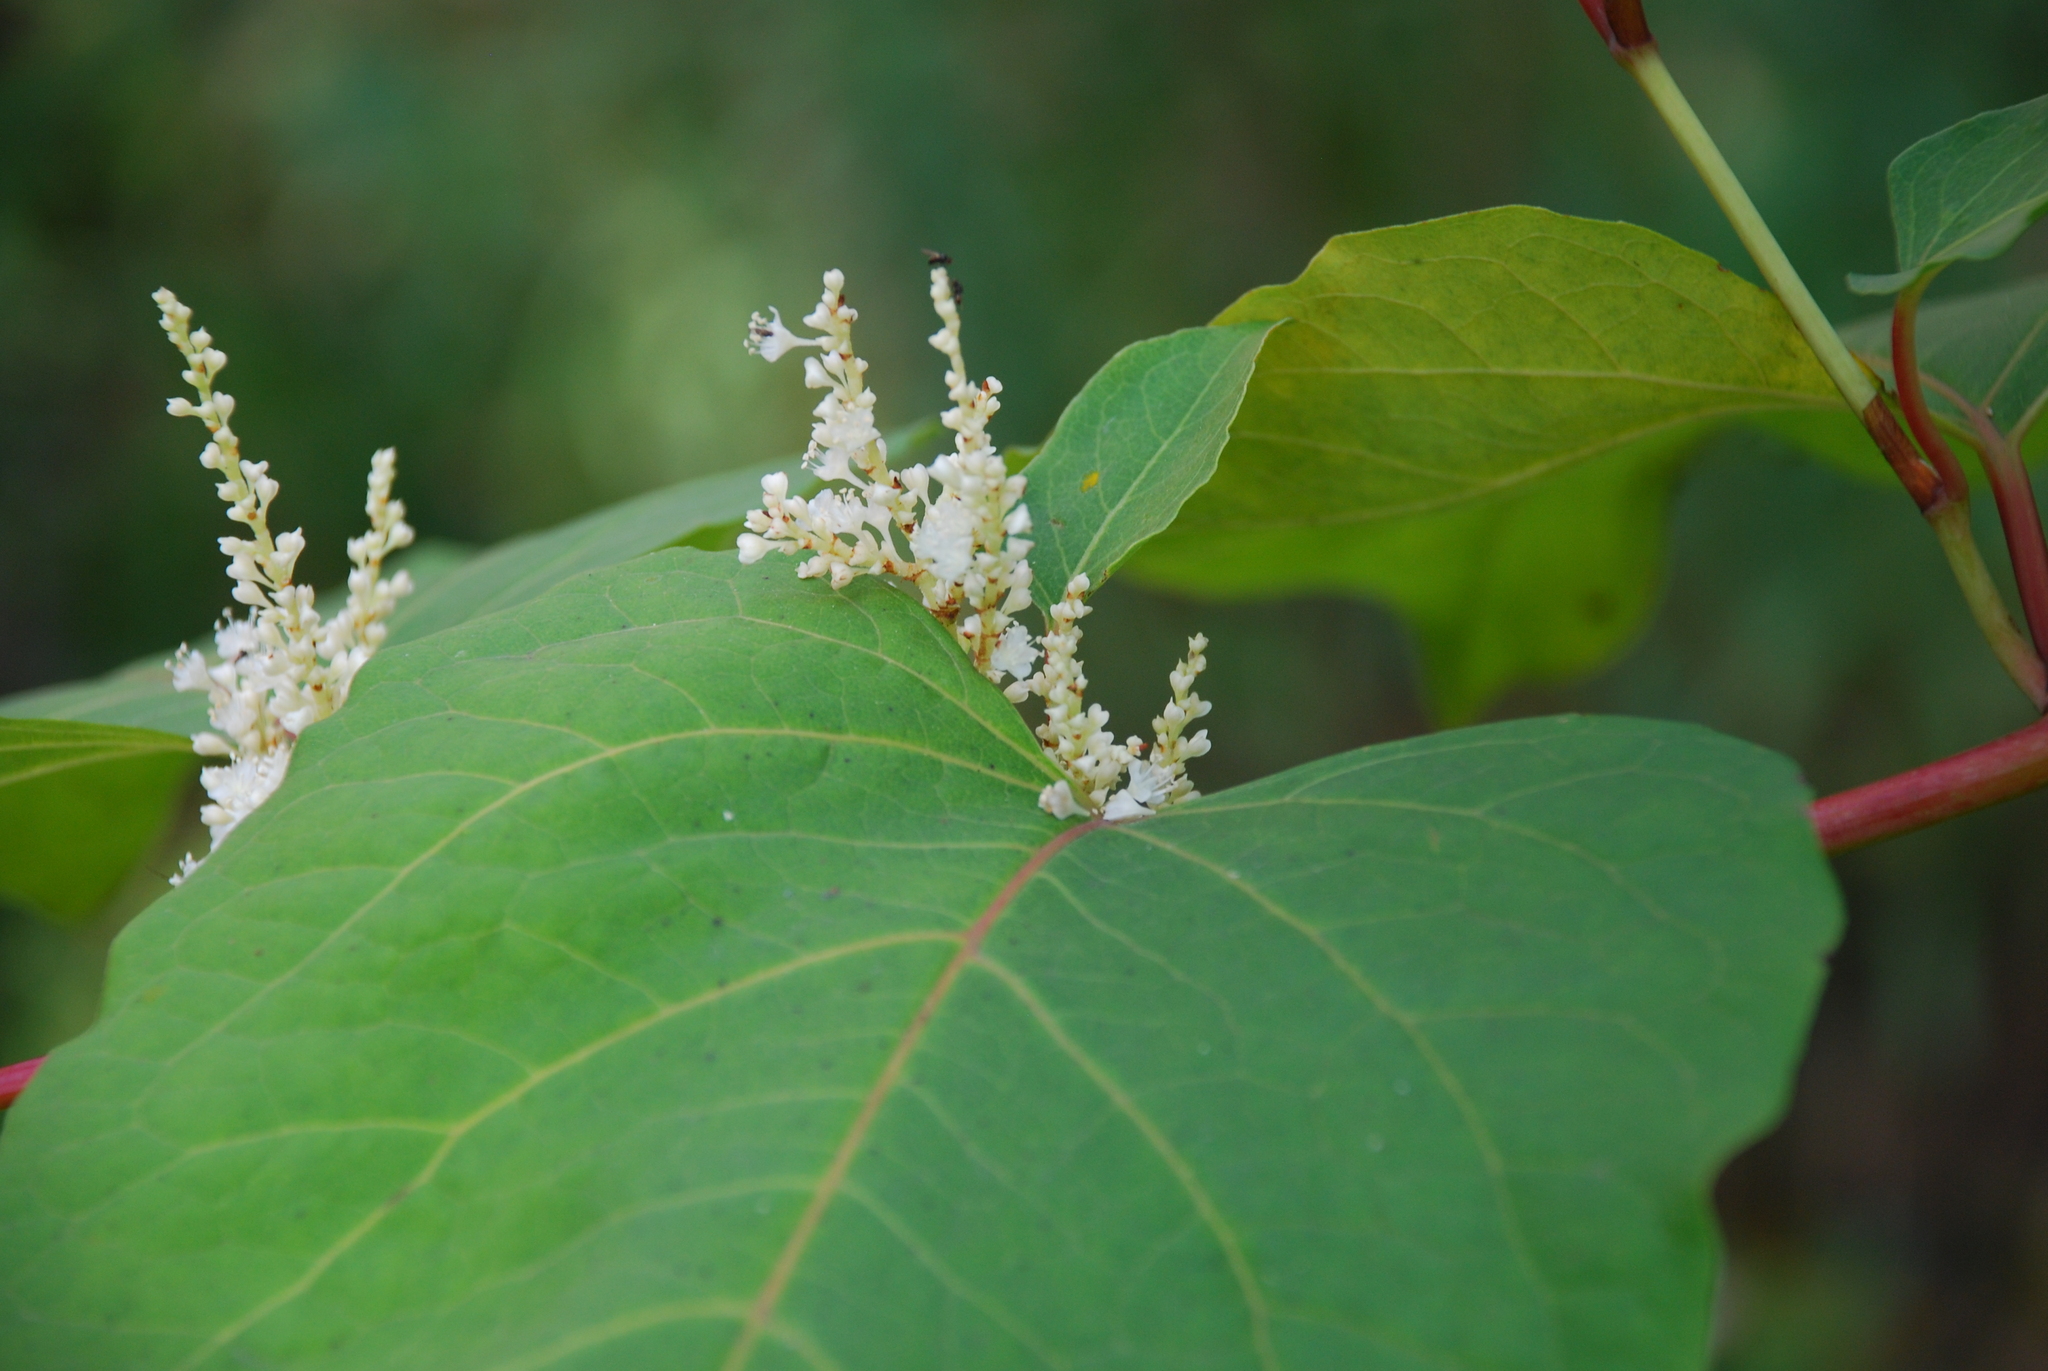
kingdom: Plantae
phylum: Tracheophyta
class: Magnoliopsida
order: Caryophyllales
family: Polygonaceae
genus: Reynoutria
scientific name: Reynoutria bohemica
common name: Bohemian knotweed
